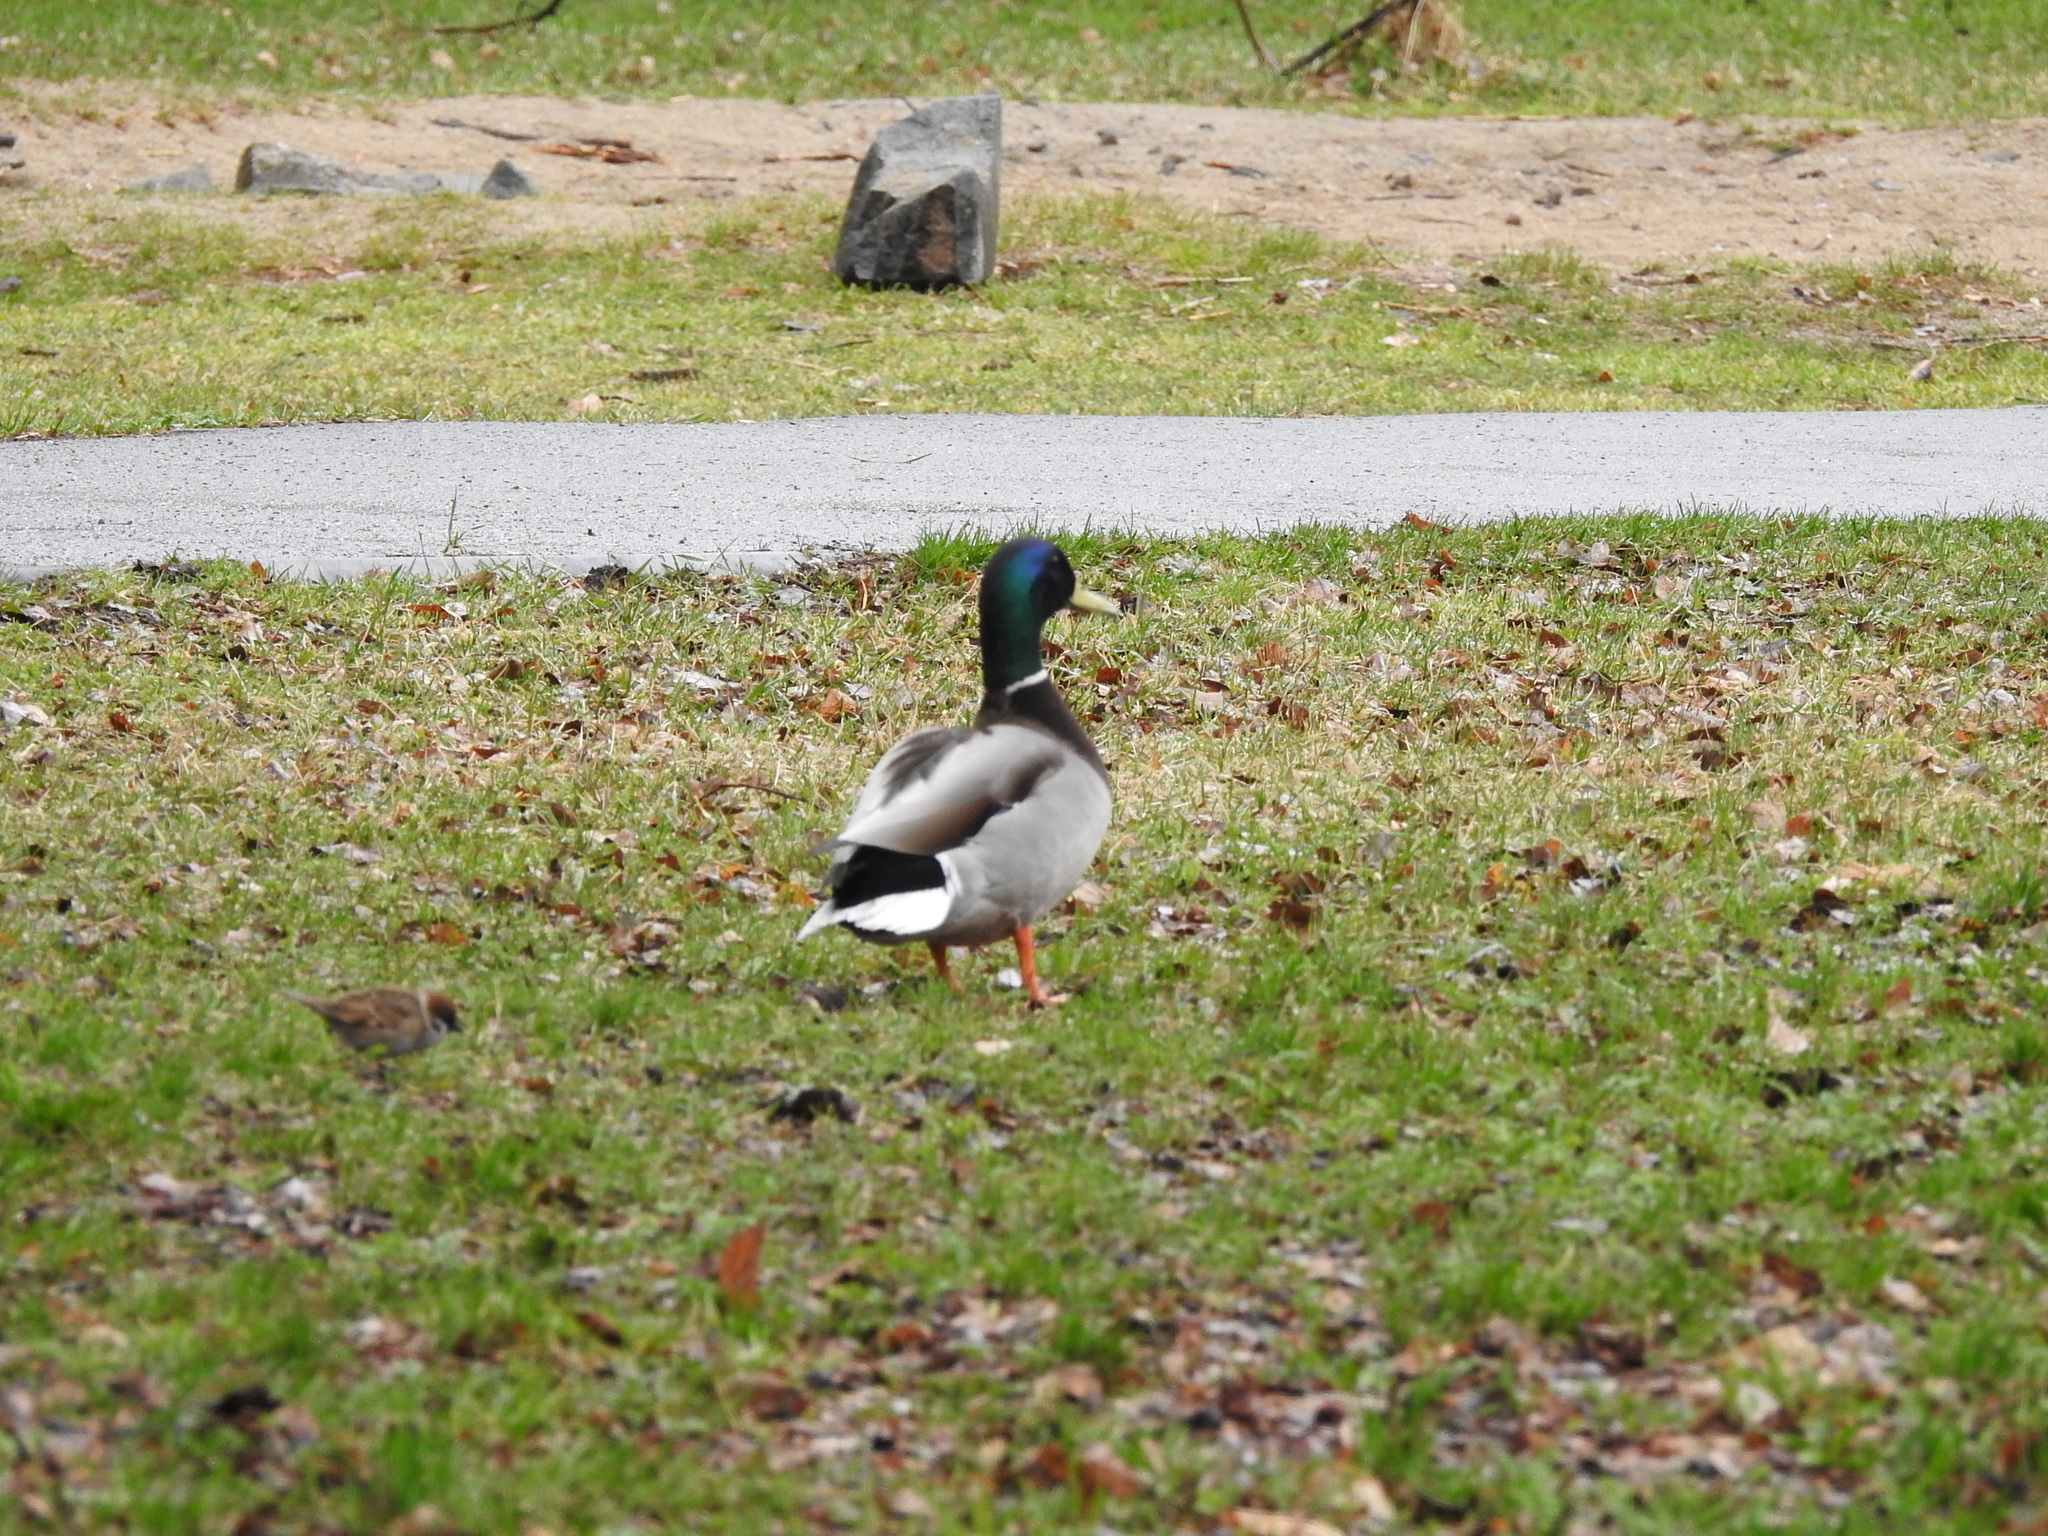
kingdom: Animalia
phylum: Chordata
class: Aves
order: Anseriformes
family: Anatidae
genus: Anas
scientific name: Anas platyrhynchos
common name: Mallard
